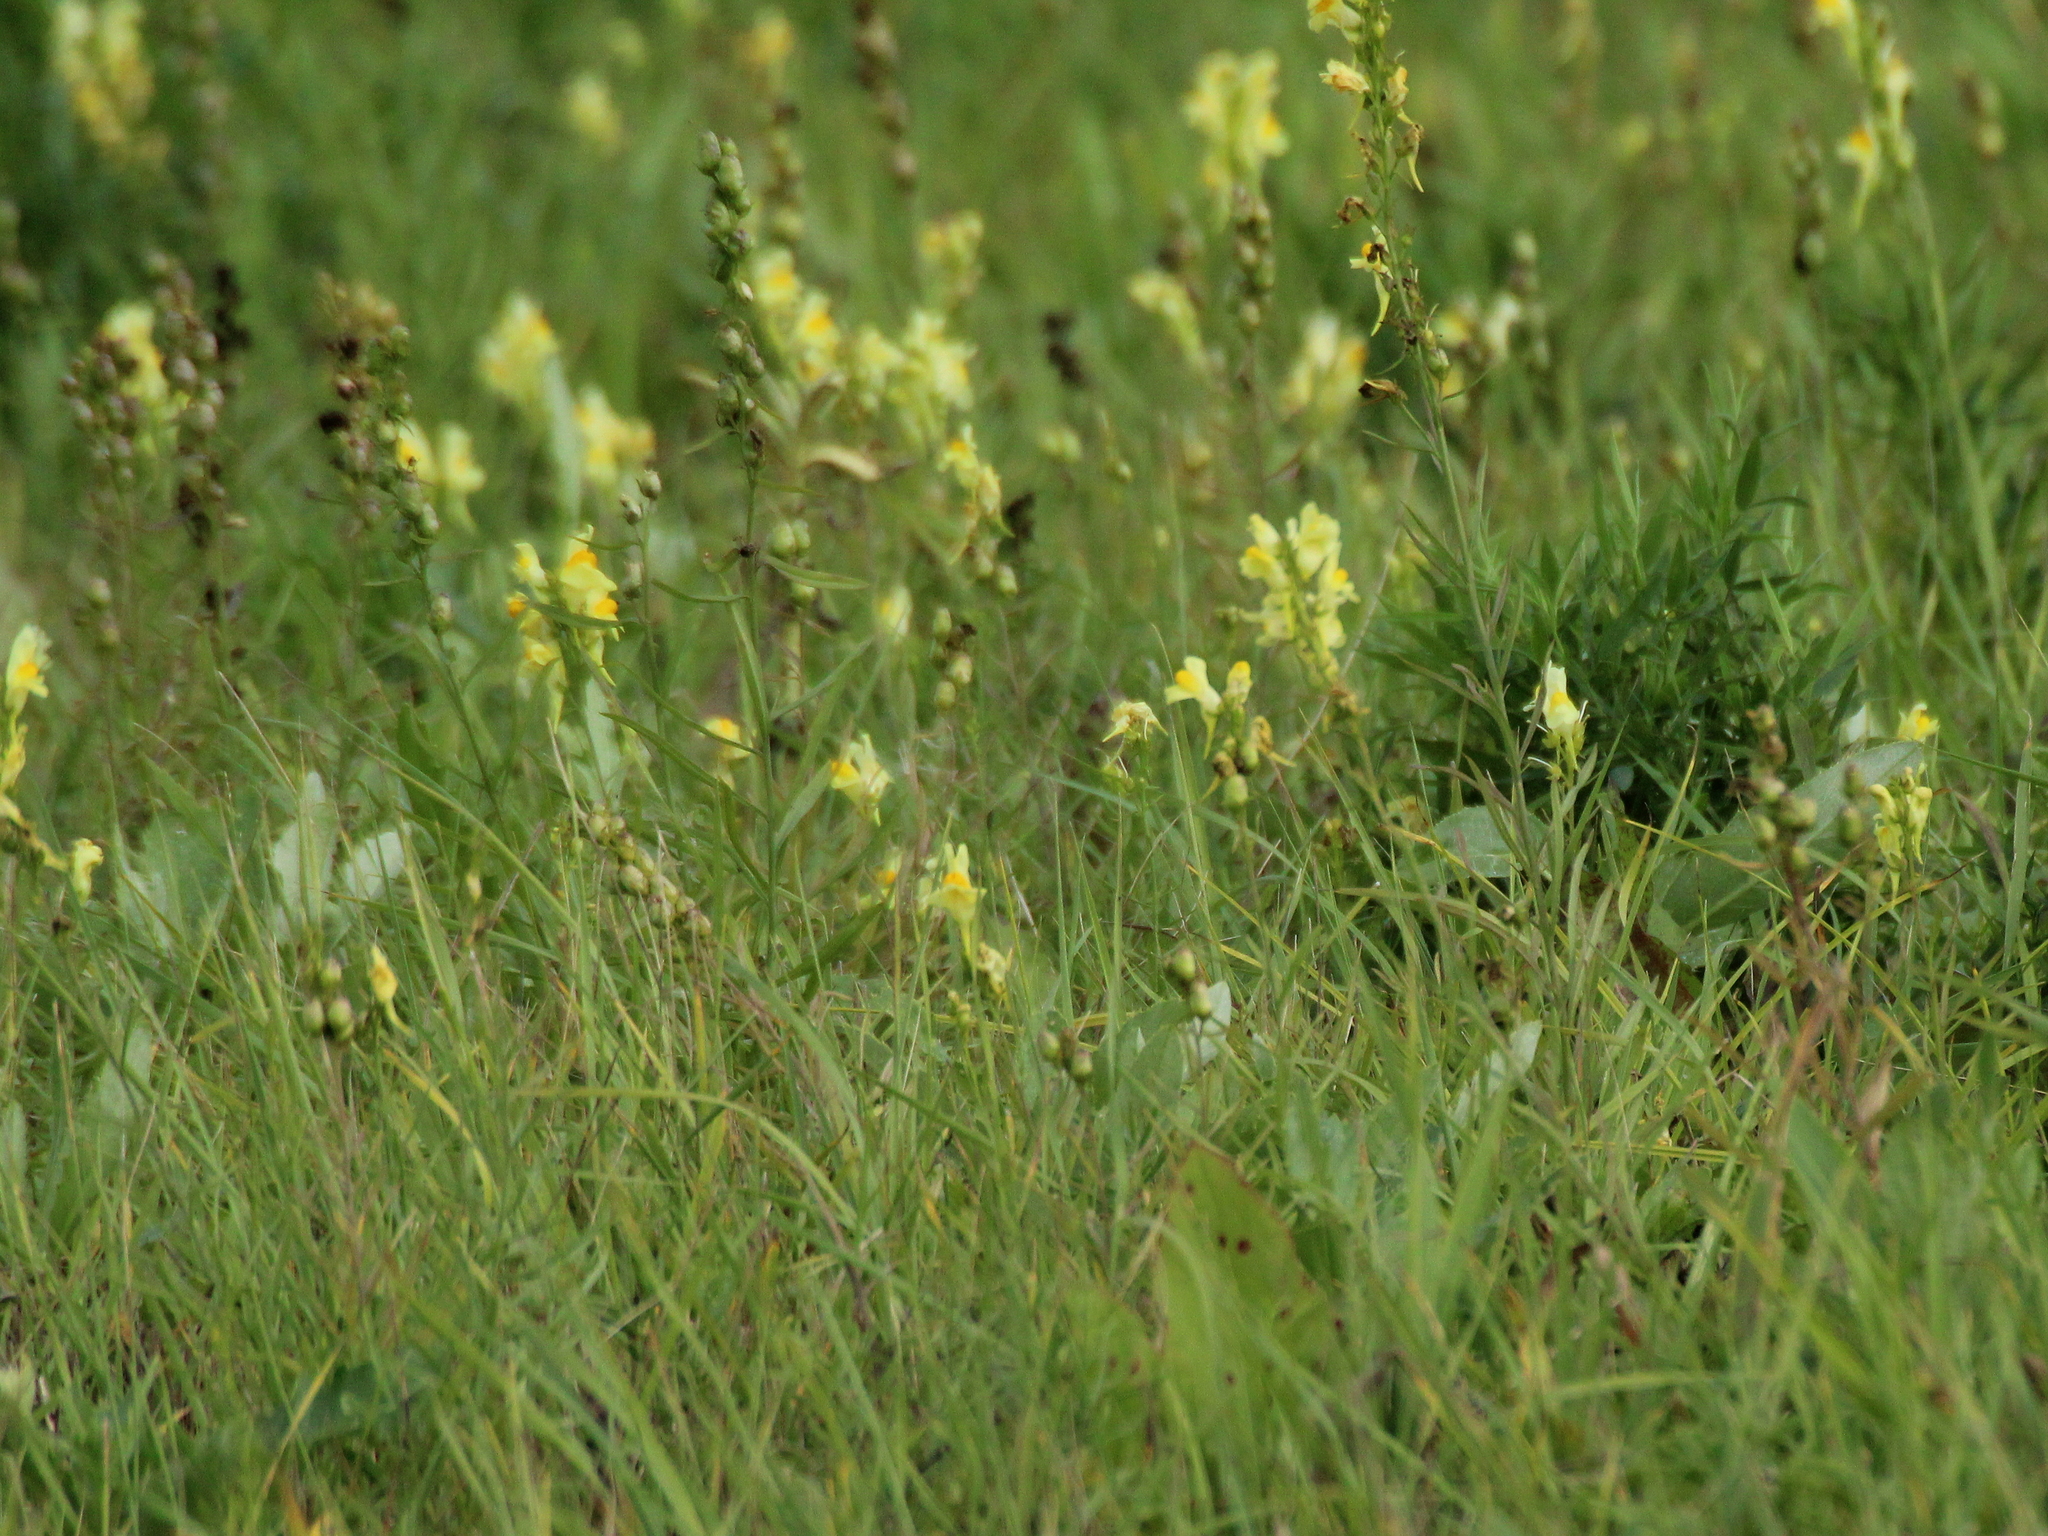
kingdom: Plantae
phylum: Tracheophyta
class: Magnoliopsida
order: Lamiales
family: Plantaginaceae
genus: Linaria
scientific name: Linaria vulgaris
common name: Butter and eggs
